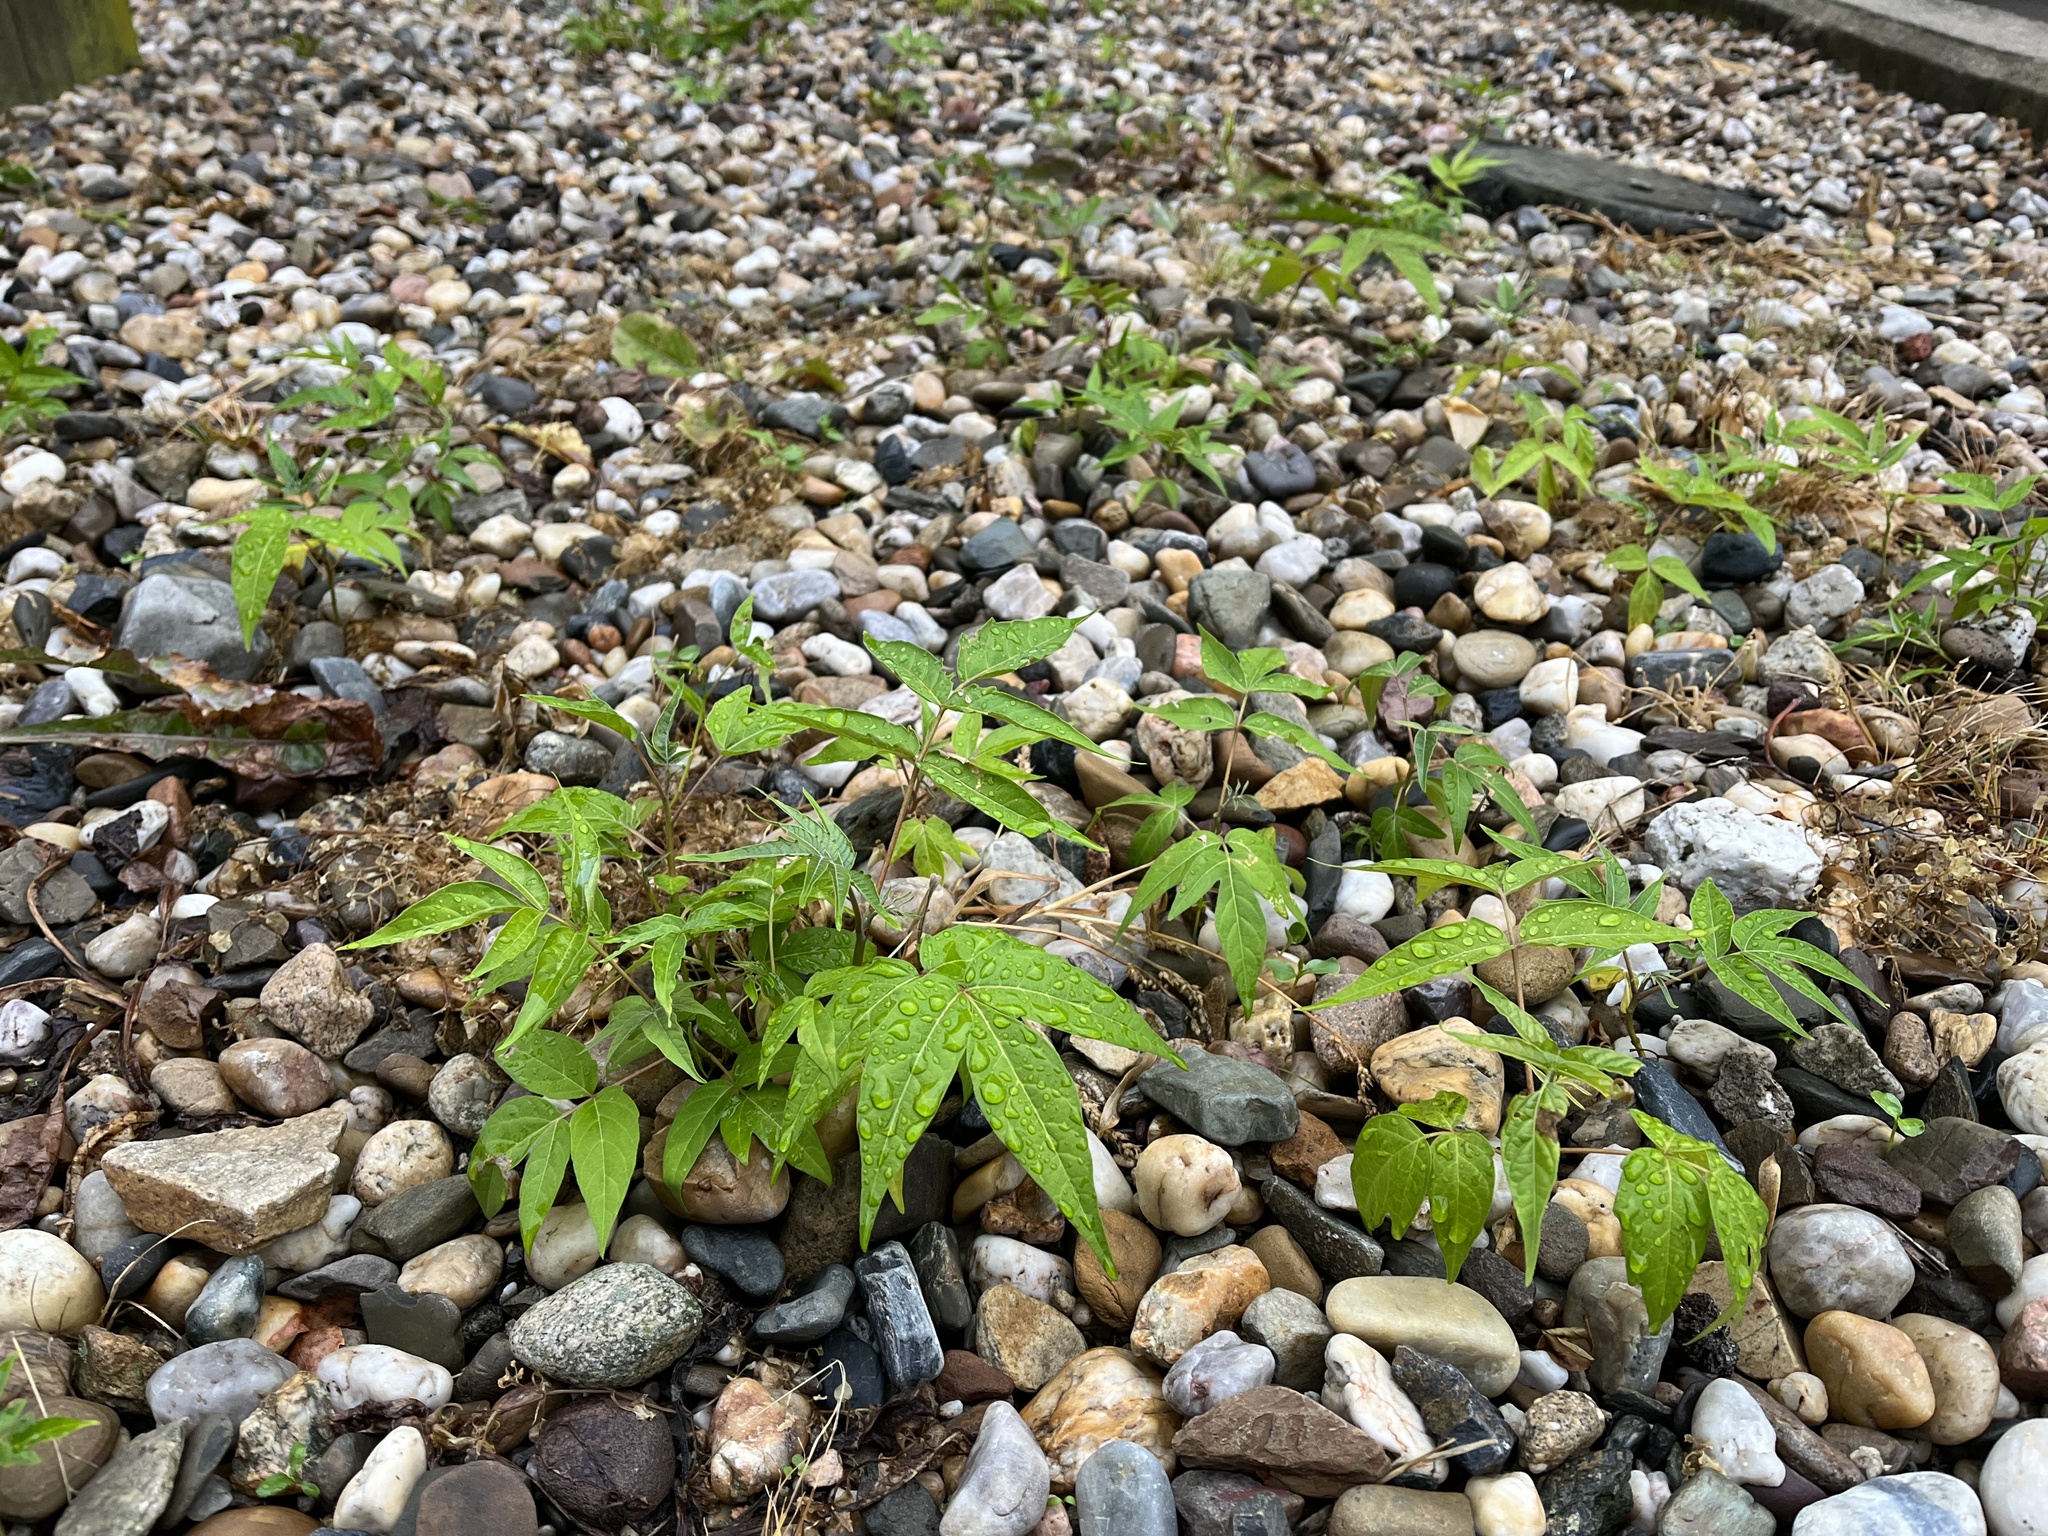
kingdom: Plantae
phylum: Tracheophyta
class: Magnoliopsida
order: Sapindales
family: Simaroubaceae
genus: Ailanthus
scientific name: Ailanthus altissima
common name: Tree-of-heaven
